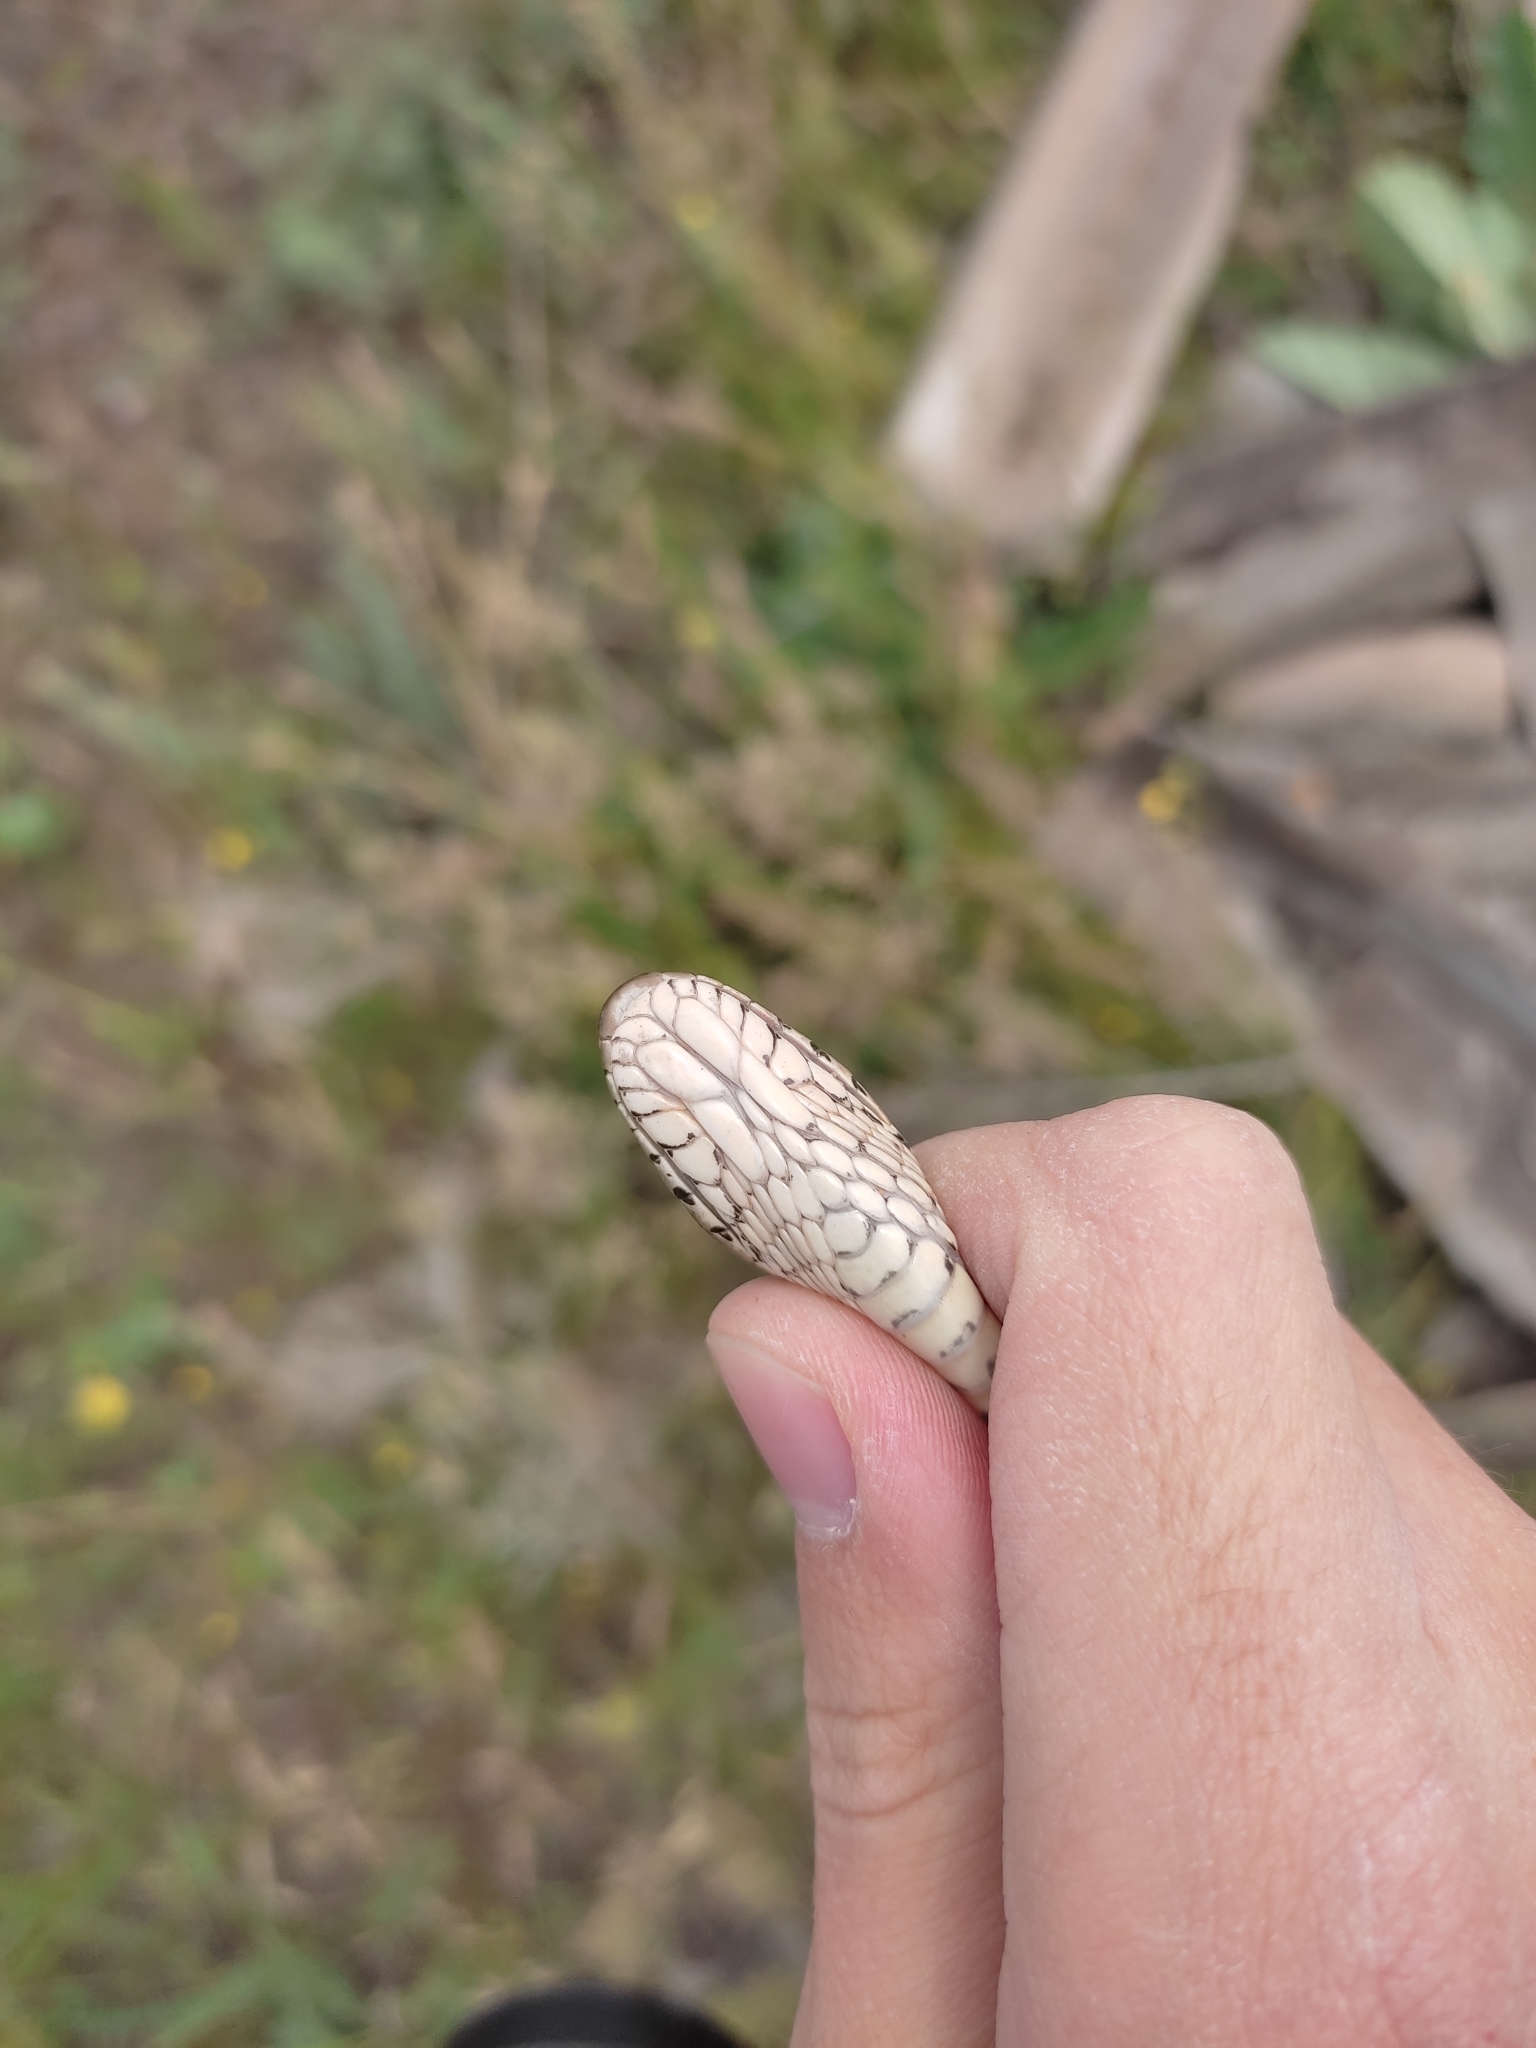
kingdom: Animalia
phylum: Chordata
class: Squamata
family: Colubridae
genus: Elaphe
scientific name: Elaphe dione
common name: Dione ratsnake
